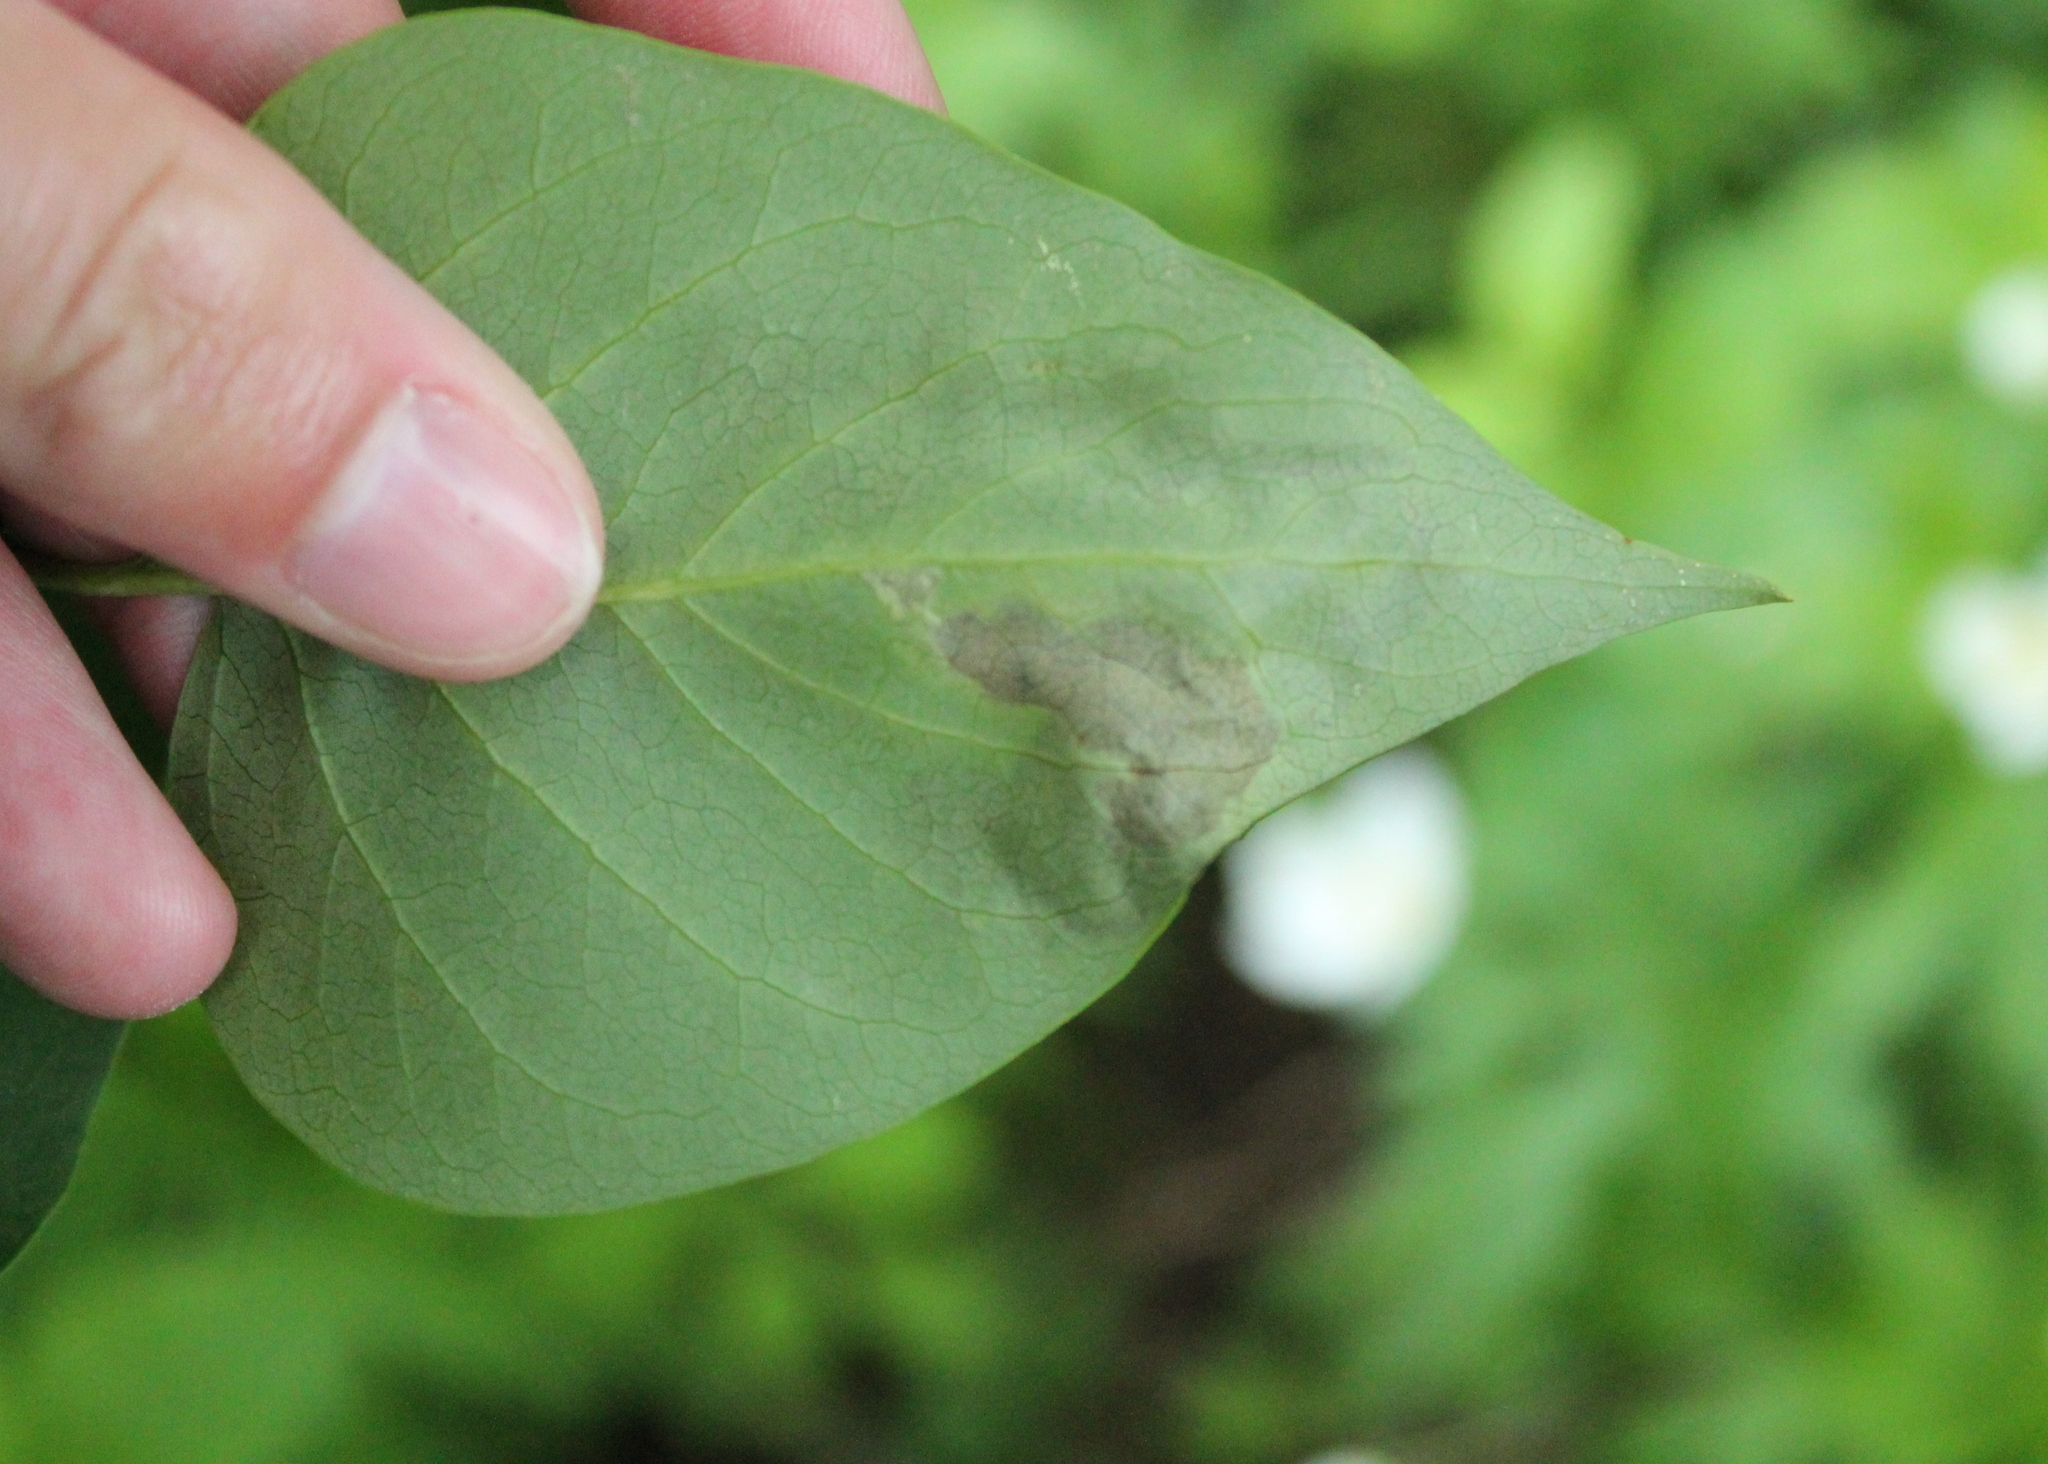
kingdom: Animalia
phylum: Arthropoda
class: Insecta
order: Lepidoptera
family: Gracillariidae
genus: Gracillaria
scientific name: Gracillaria syringella
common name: Common slender
